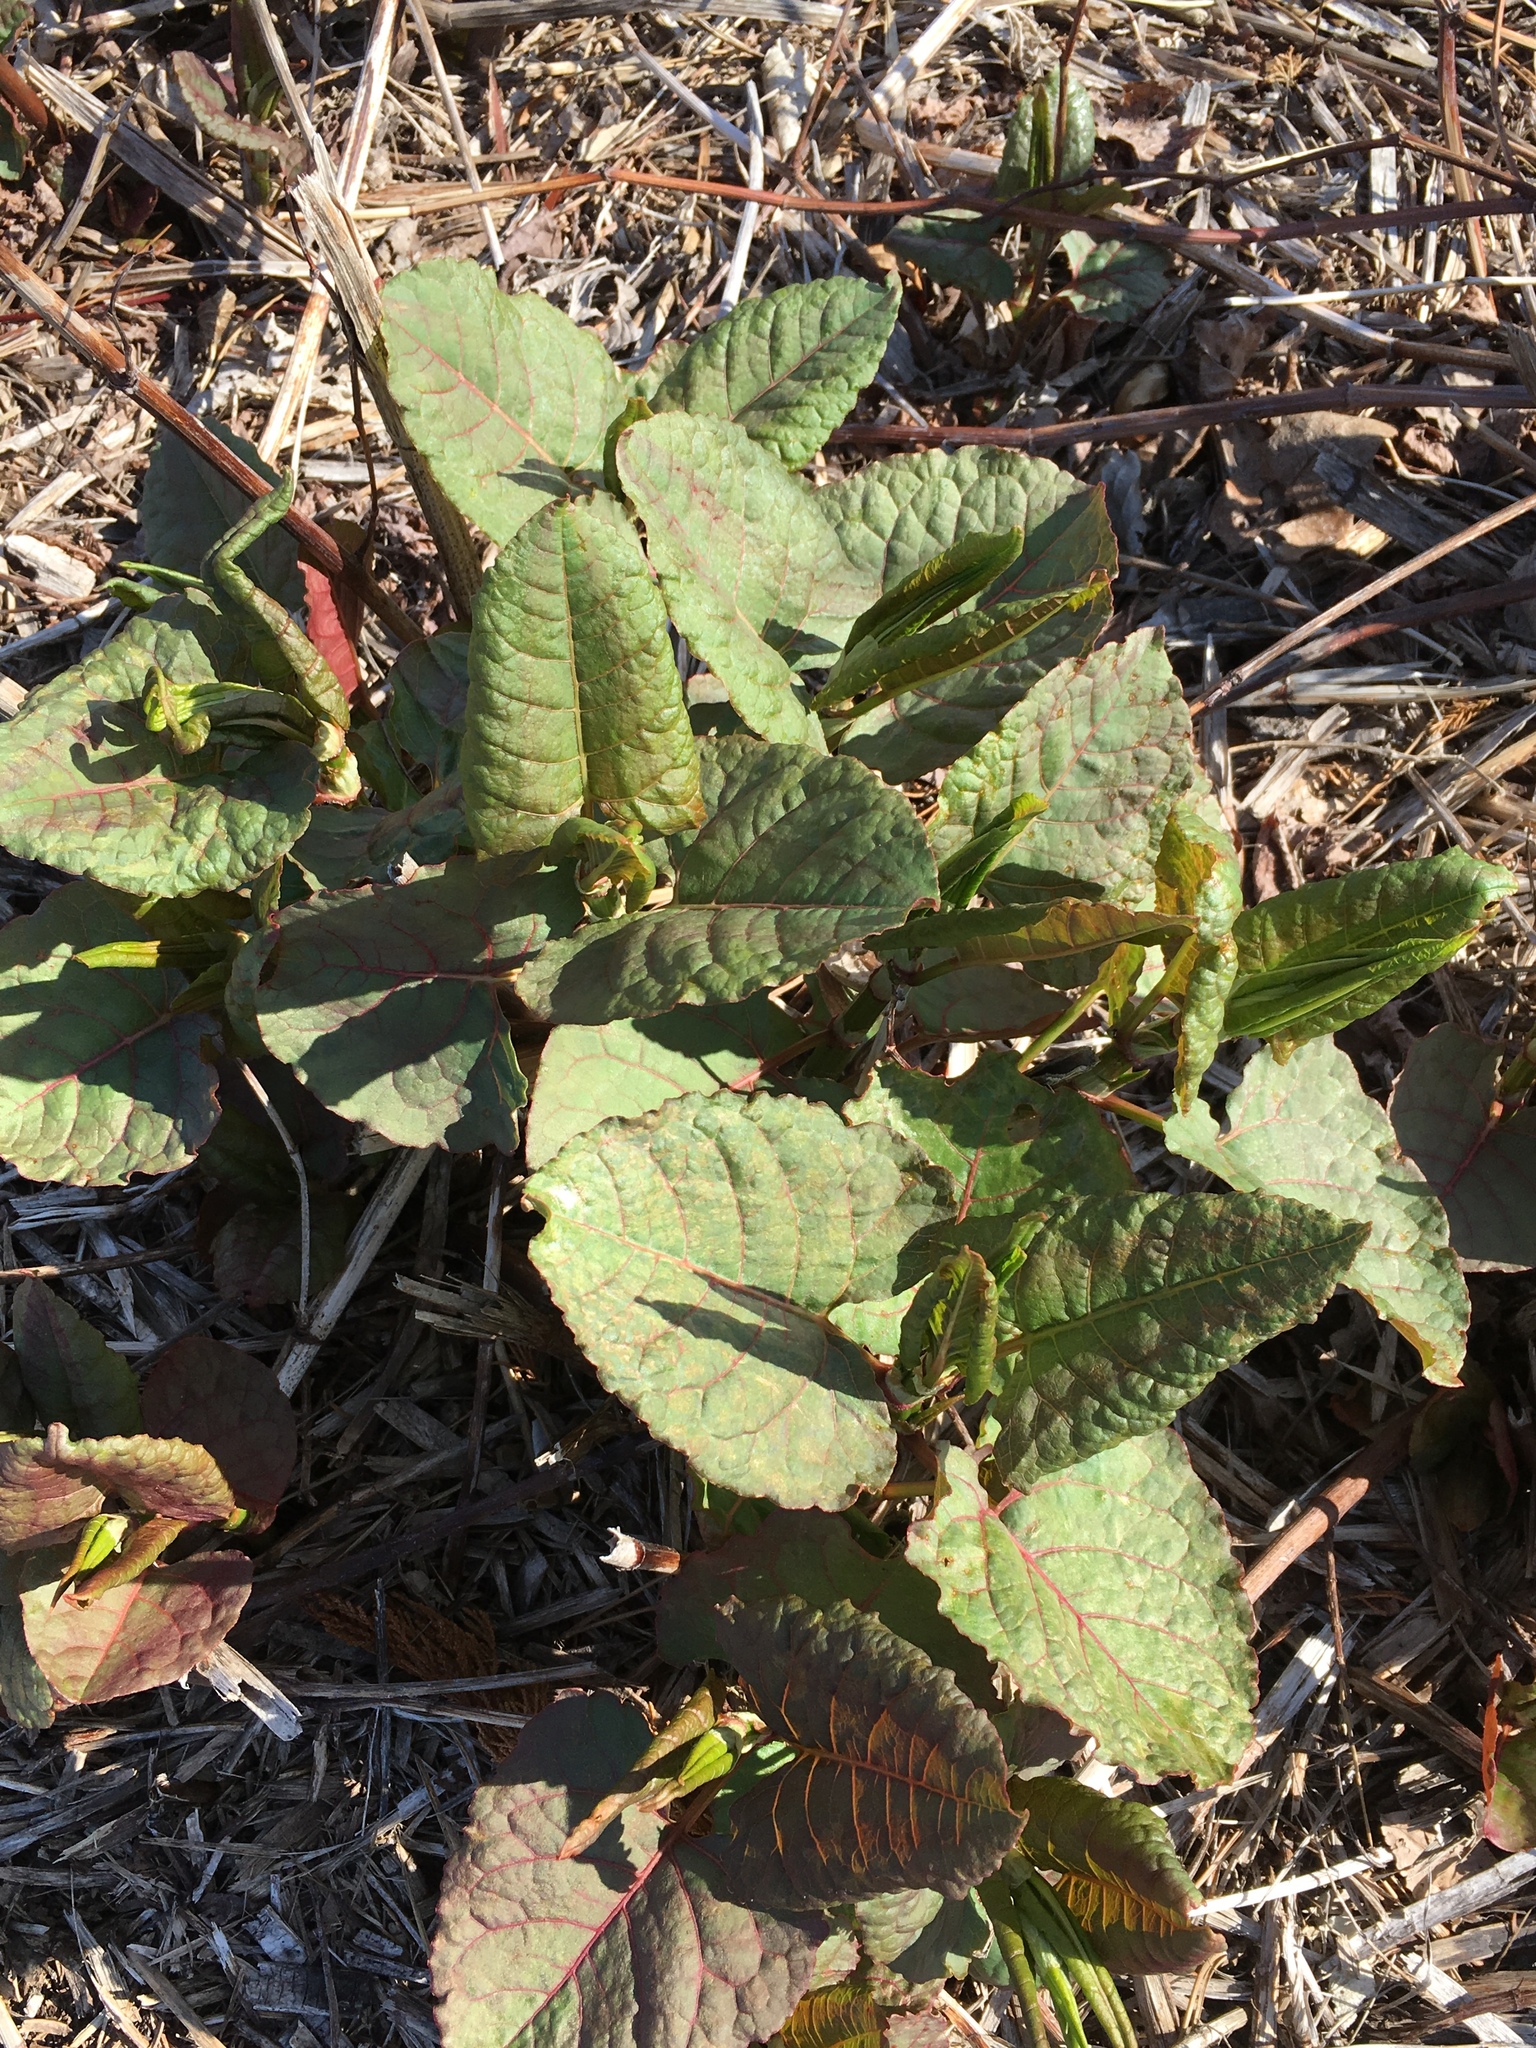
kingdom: Plantae
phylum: Tracheophyta
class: Magnoliopsida
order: Caryophyllales
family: Polygonaceae
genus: Reynoutria
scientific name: Reynoutria japonica
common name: Japanese knotweed
